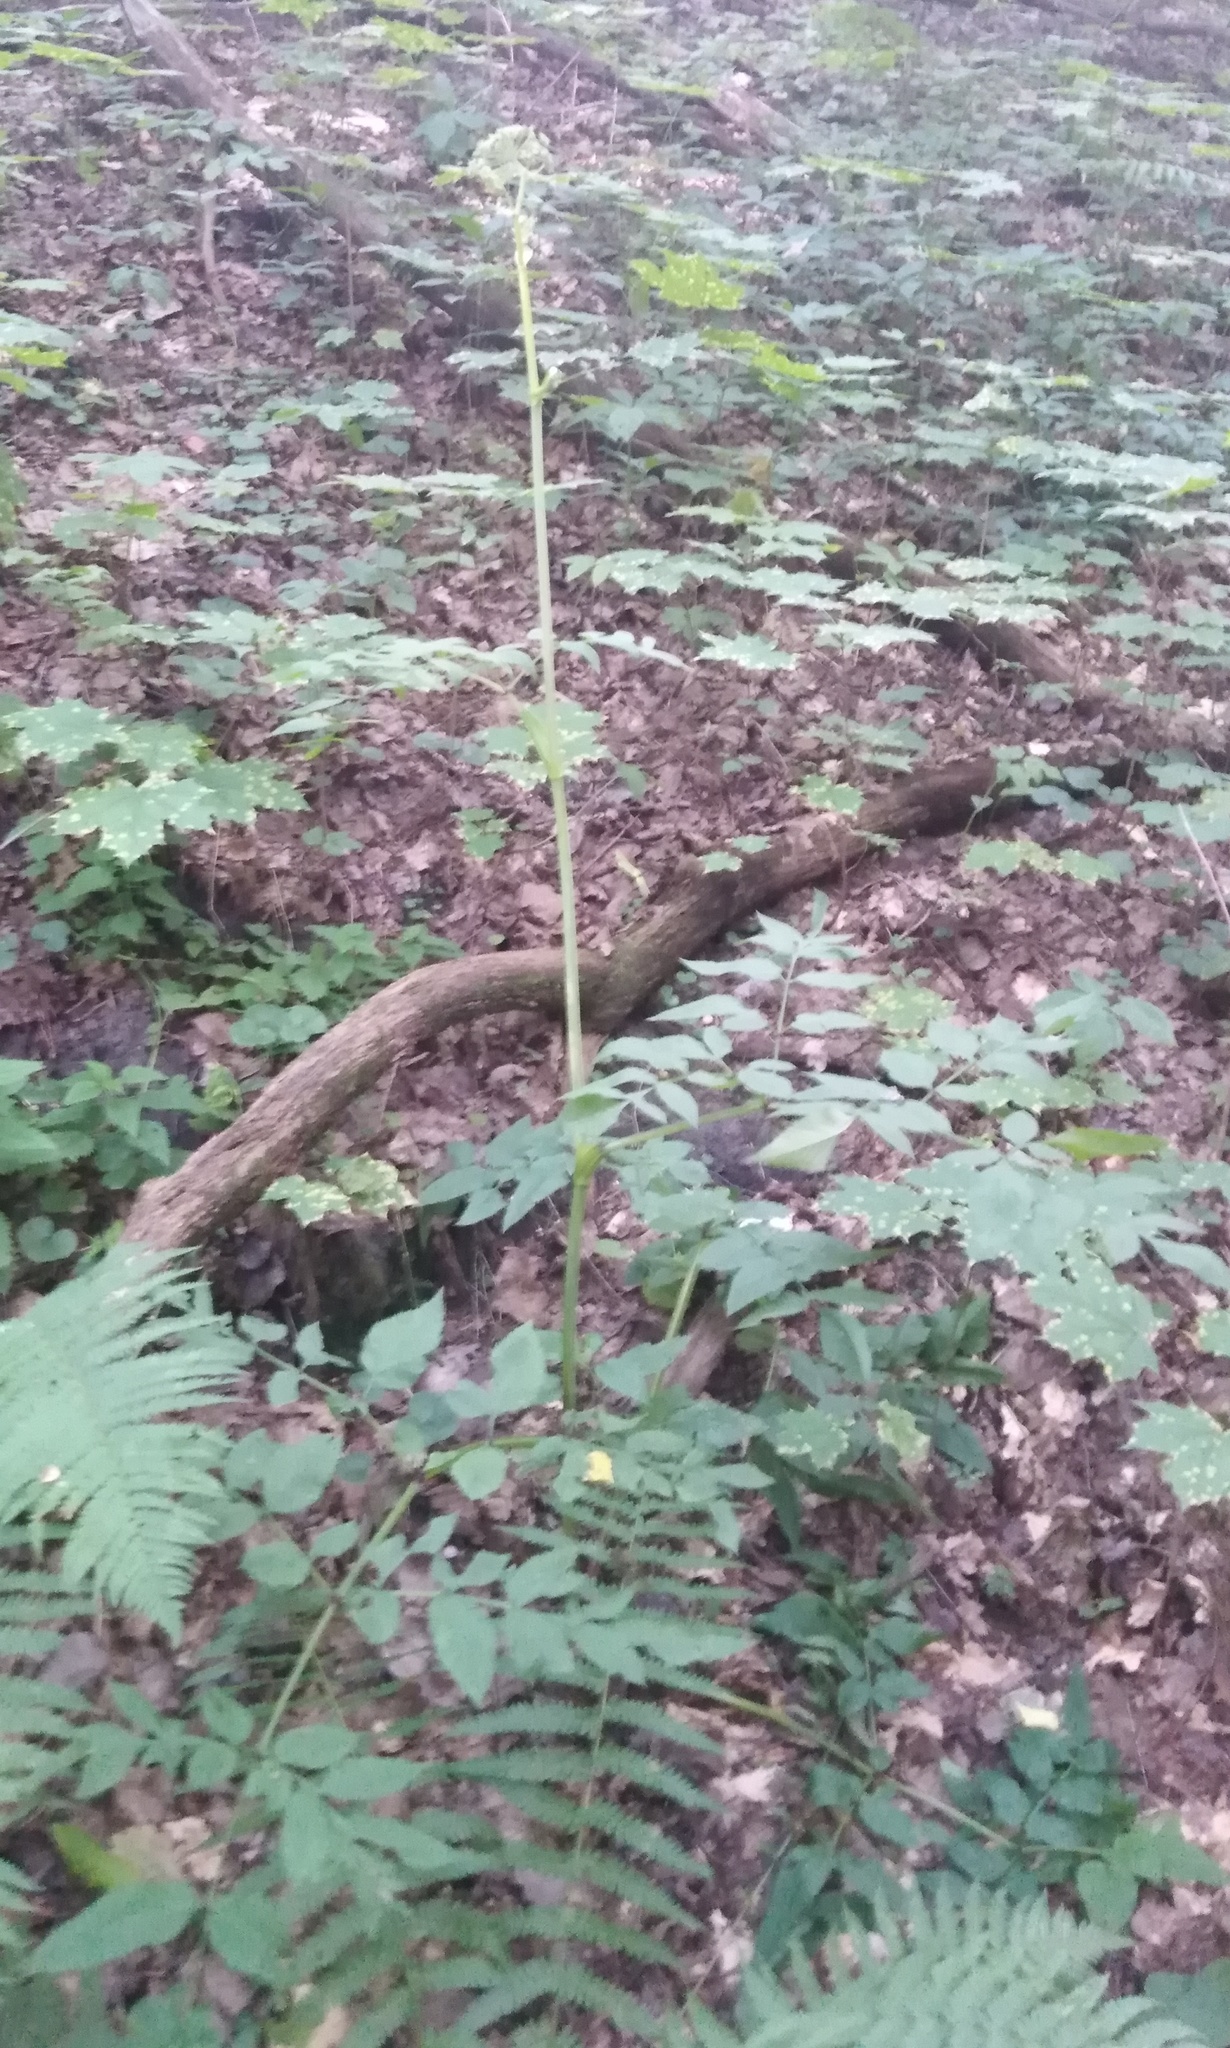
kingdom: Plantae
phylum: Tracheophyta
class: Magnoliopsida
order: Apiales
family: Apiaceae
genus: Angelica
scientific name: Angelica sylvestris
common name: Wild angelica
